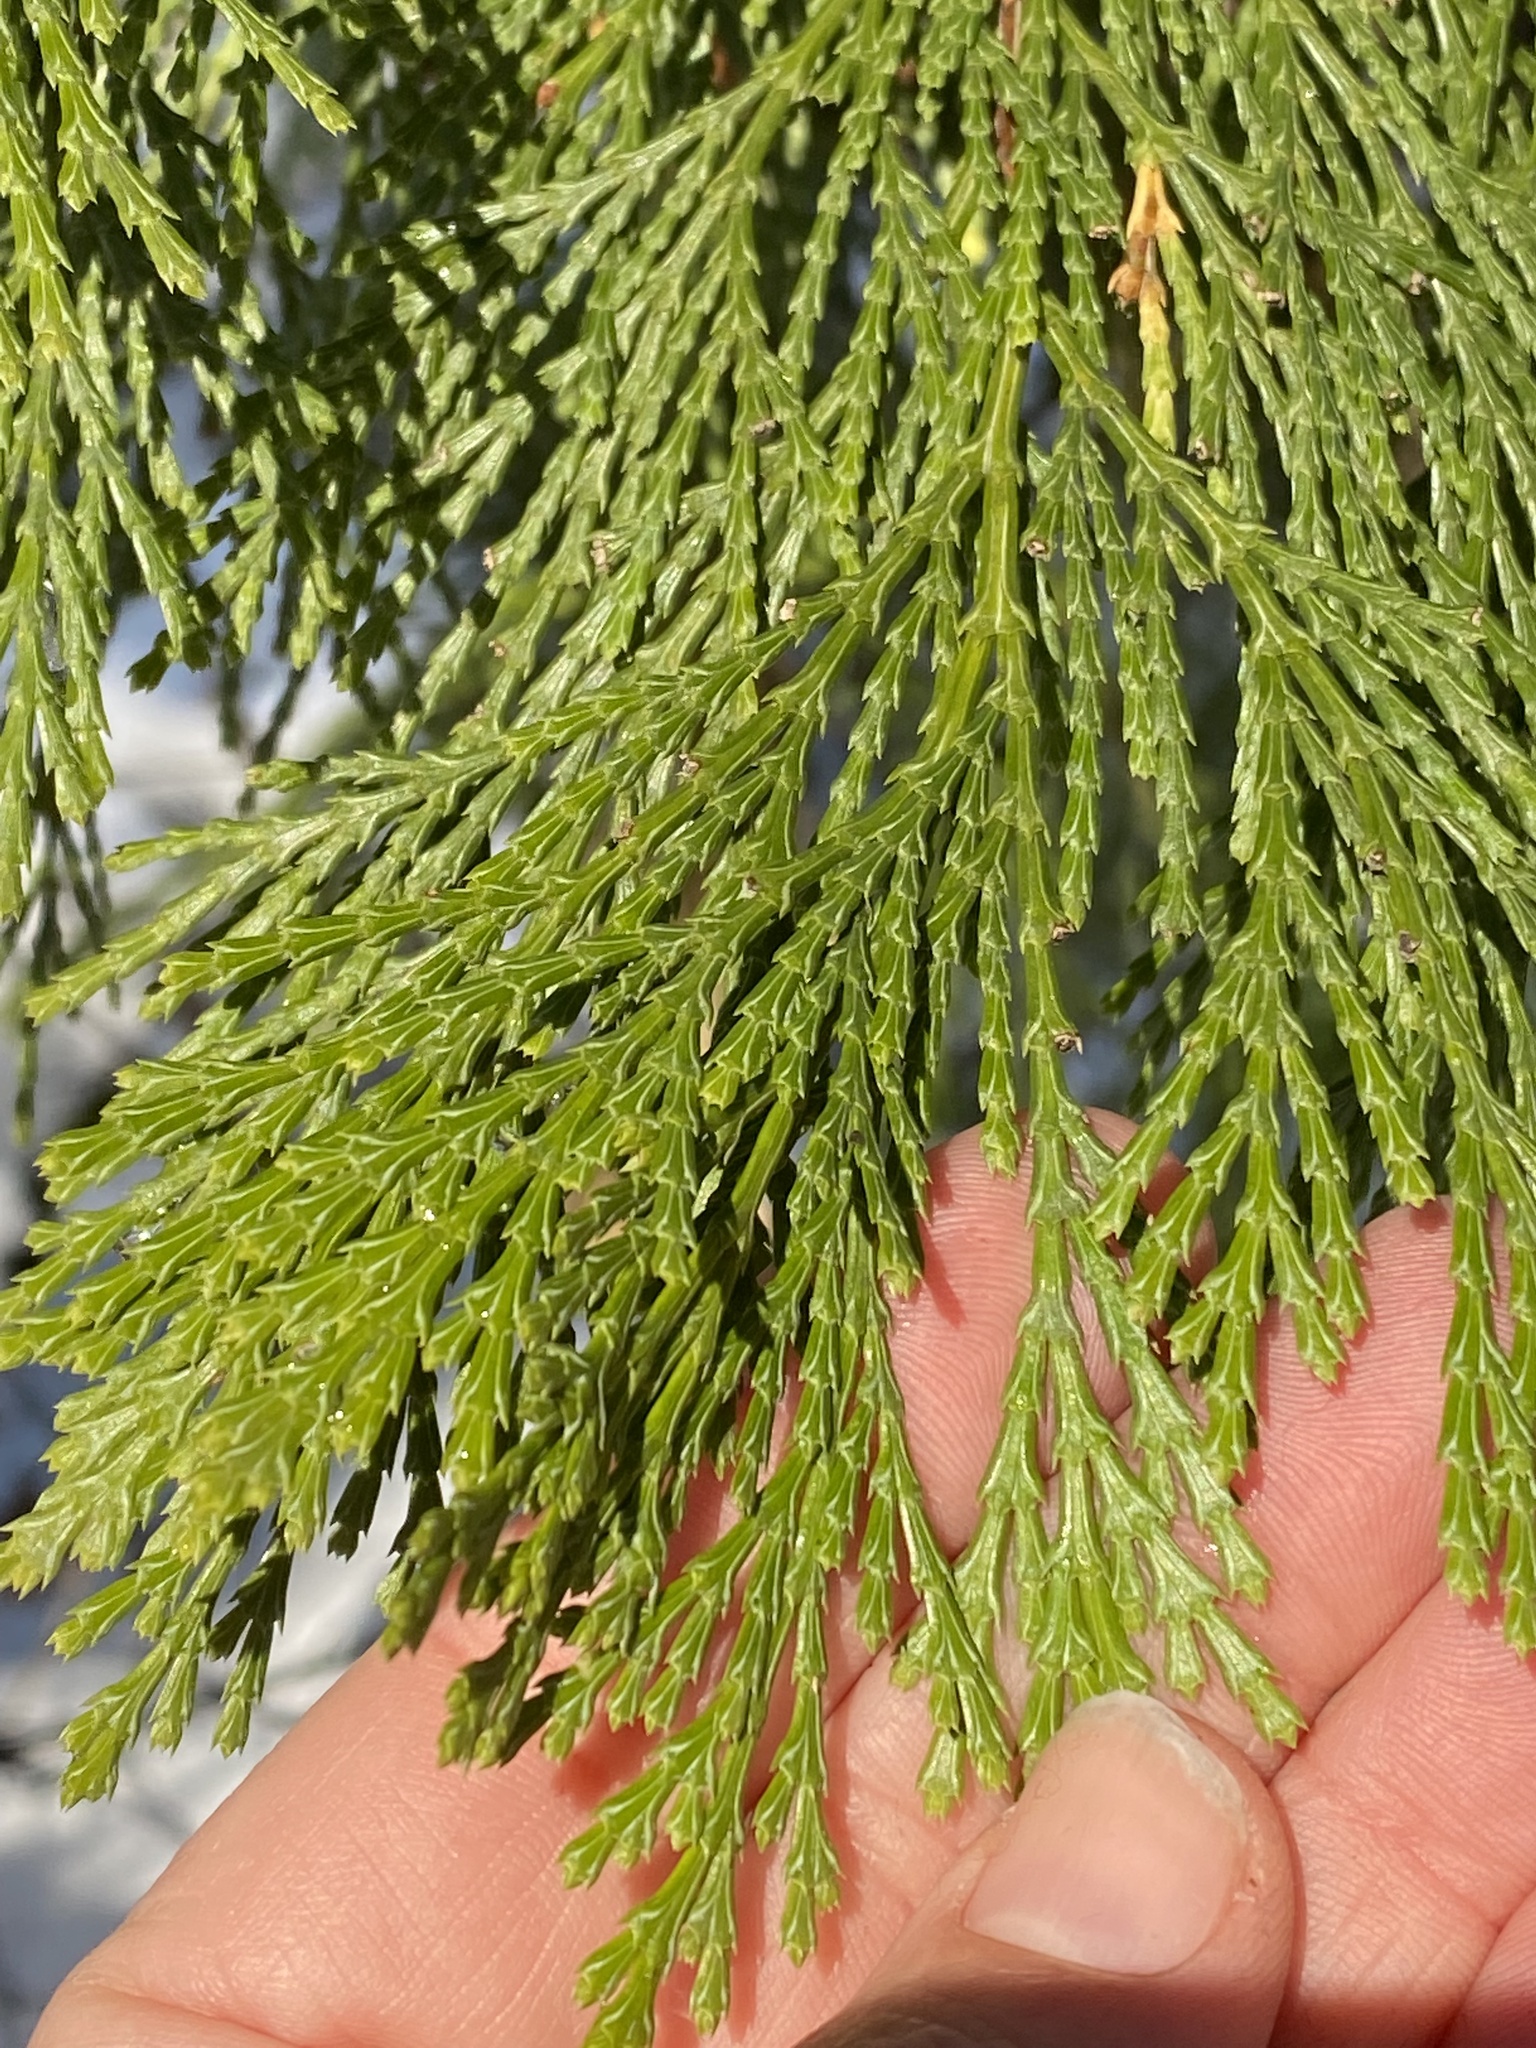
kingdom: Plantae
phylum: Tracheophyta
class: Pinopsida
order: Pinales
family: Cupressaceae
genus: Calocedrus
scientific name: Calocedrus decurrens
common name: Californian incense-cedar
